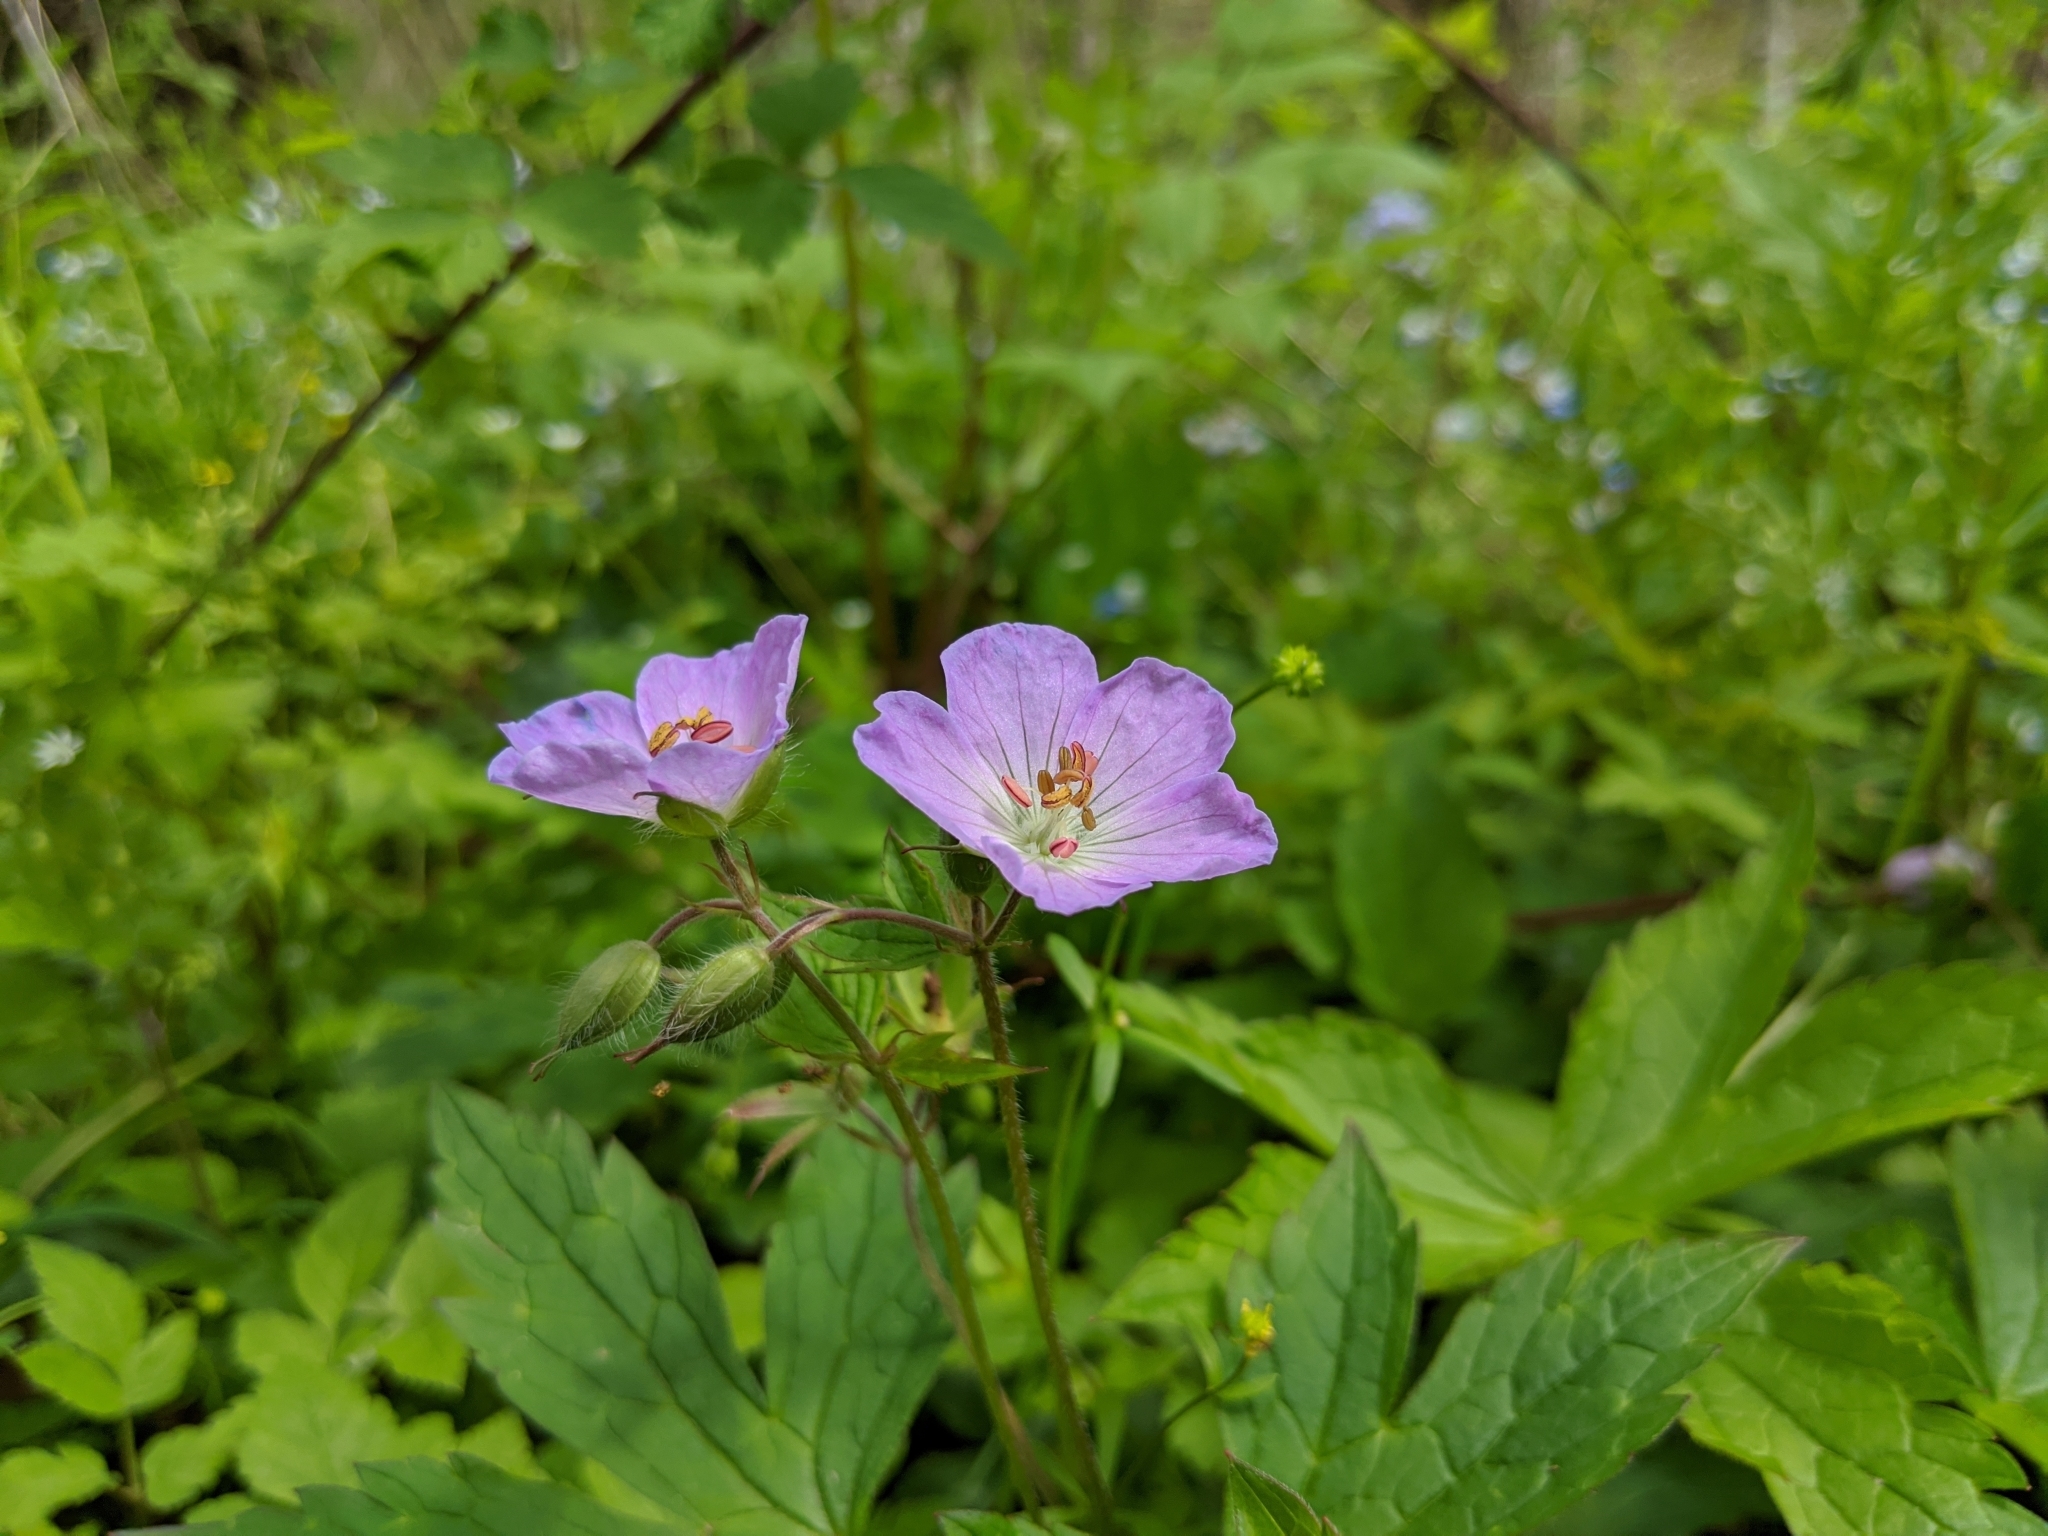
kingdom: Plantae
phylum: Tracheophyta
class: Magnoliopsida
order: Geraniales
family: Geraniaceae
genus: Geranium
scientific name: Geranium maculatum
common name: Spotted geranium
